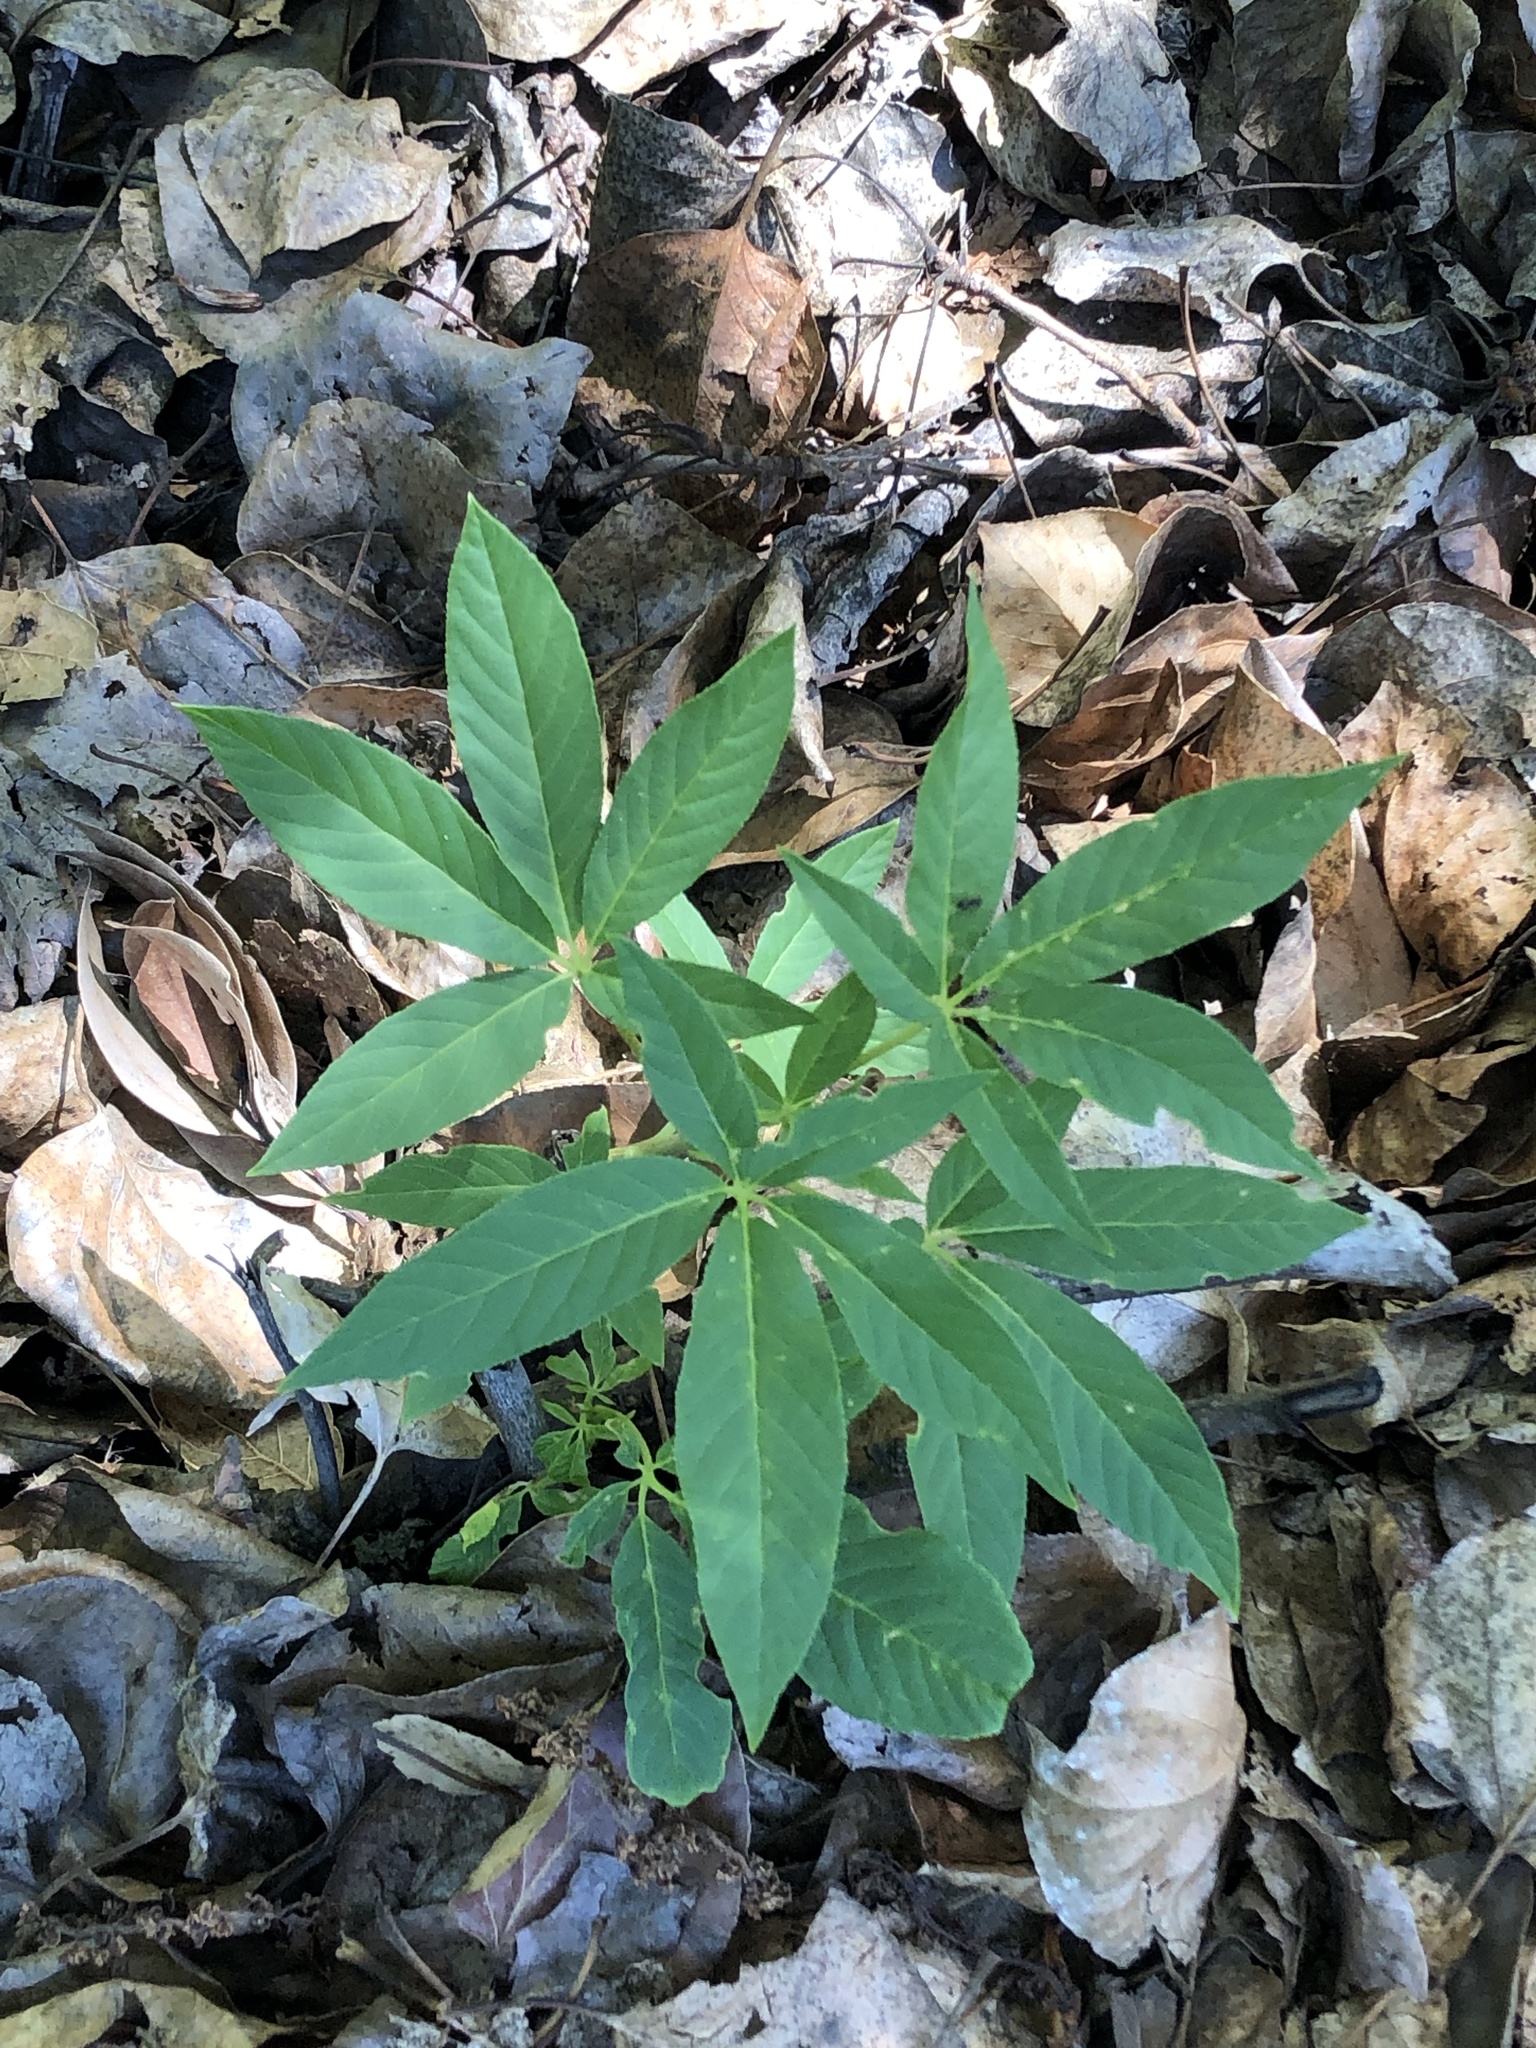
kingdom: Plantae
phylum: Tracheophyta
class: Magnoliopsida
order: Sapindales
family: Sapindaceae
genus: Aesculus
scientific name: Aesculus californica
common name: California buckeye
